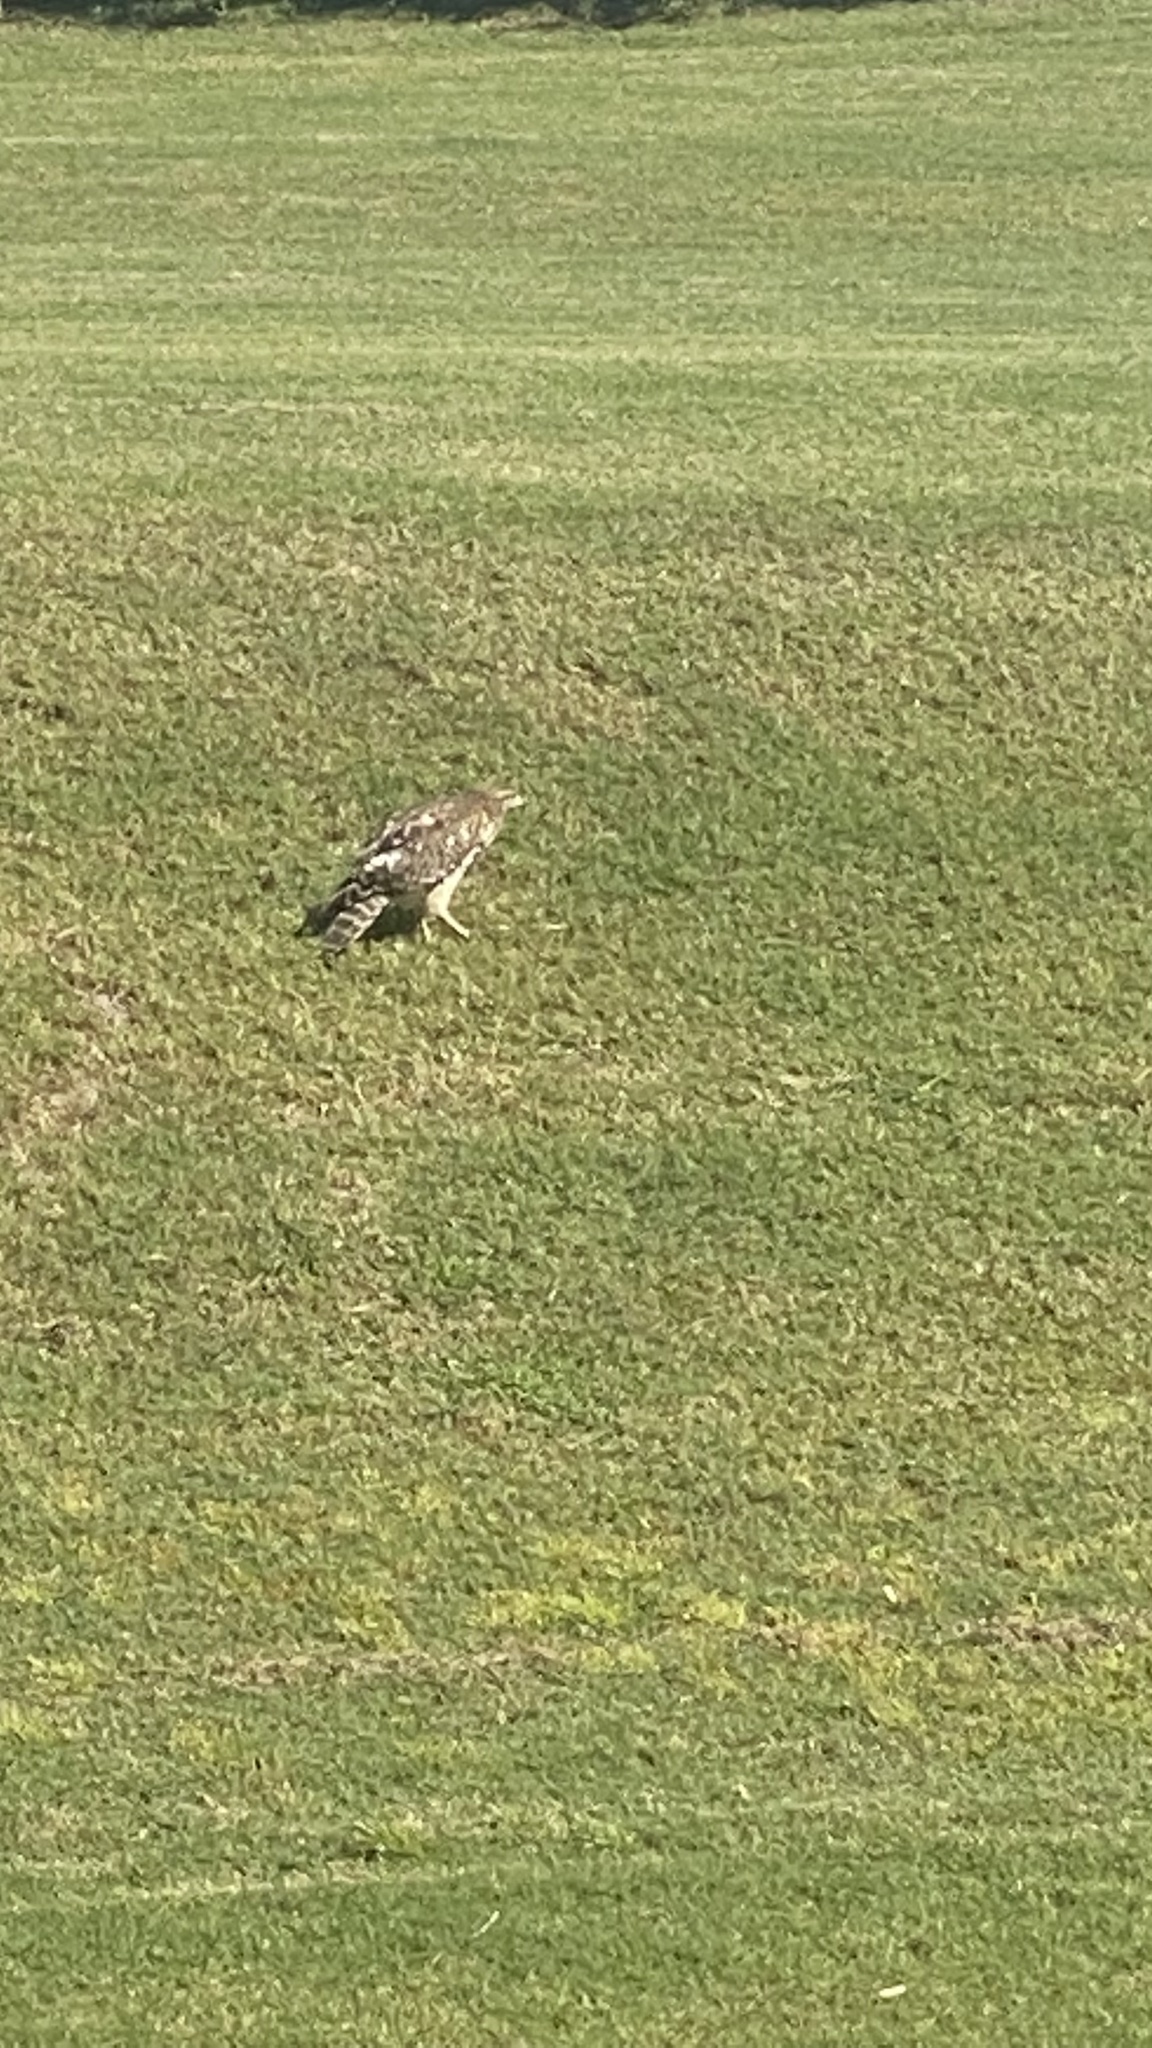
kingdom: Animalia
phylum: Chordata
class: Aves
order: Accipitriformes
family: Accipitridae
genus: Buteo
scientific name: Buteo lineatus
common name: Red-shouldered hawk
